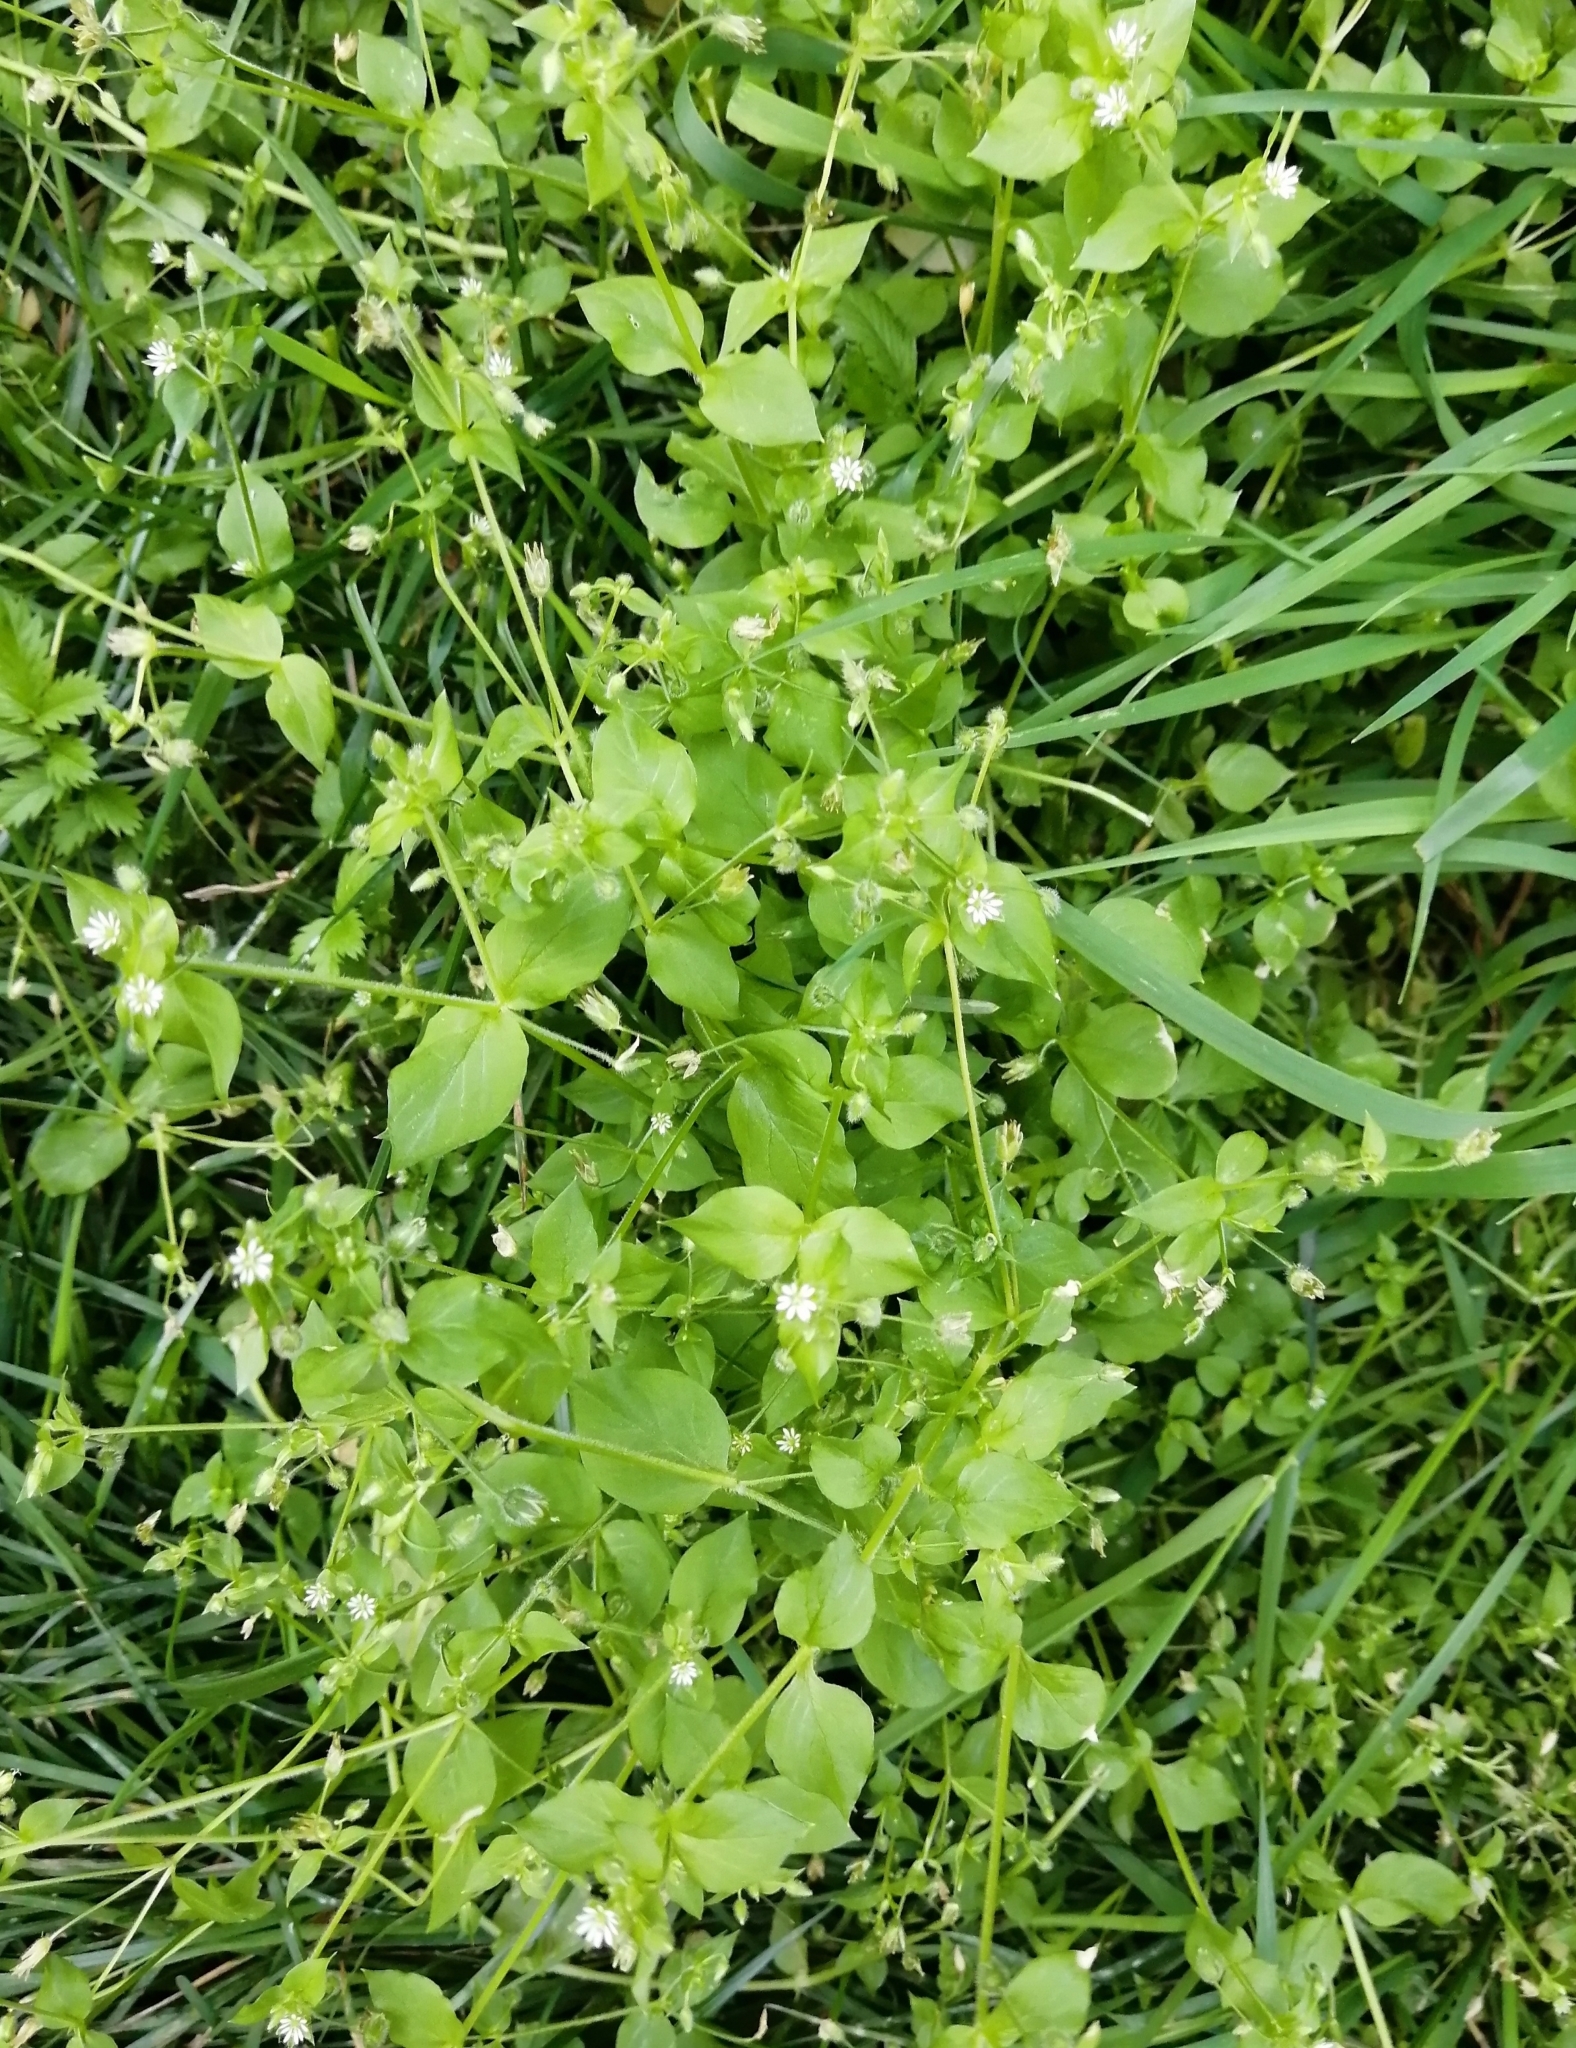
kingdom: Plantae
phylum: Tracheophyta
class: Magnoliopsida
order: Caryophyllales
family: Caryophyllaceae
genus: Stellaria
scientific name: Stellaria media
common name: Common chickweed
